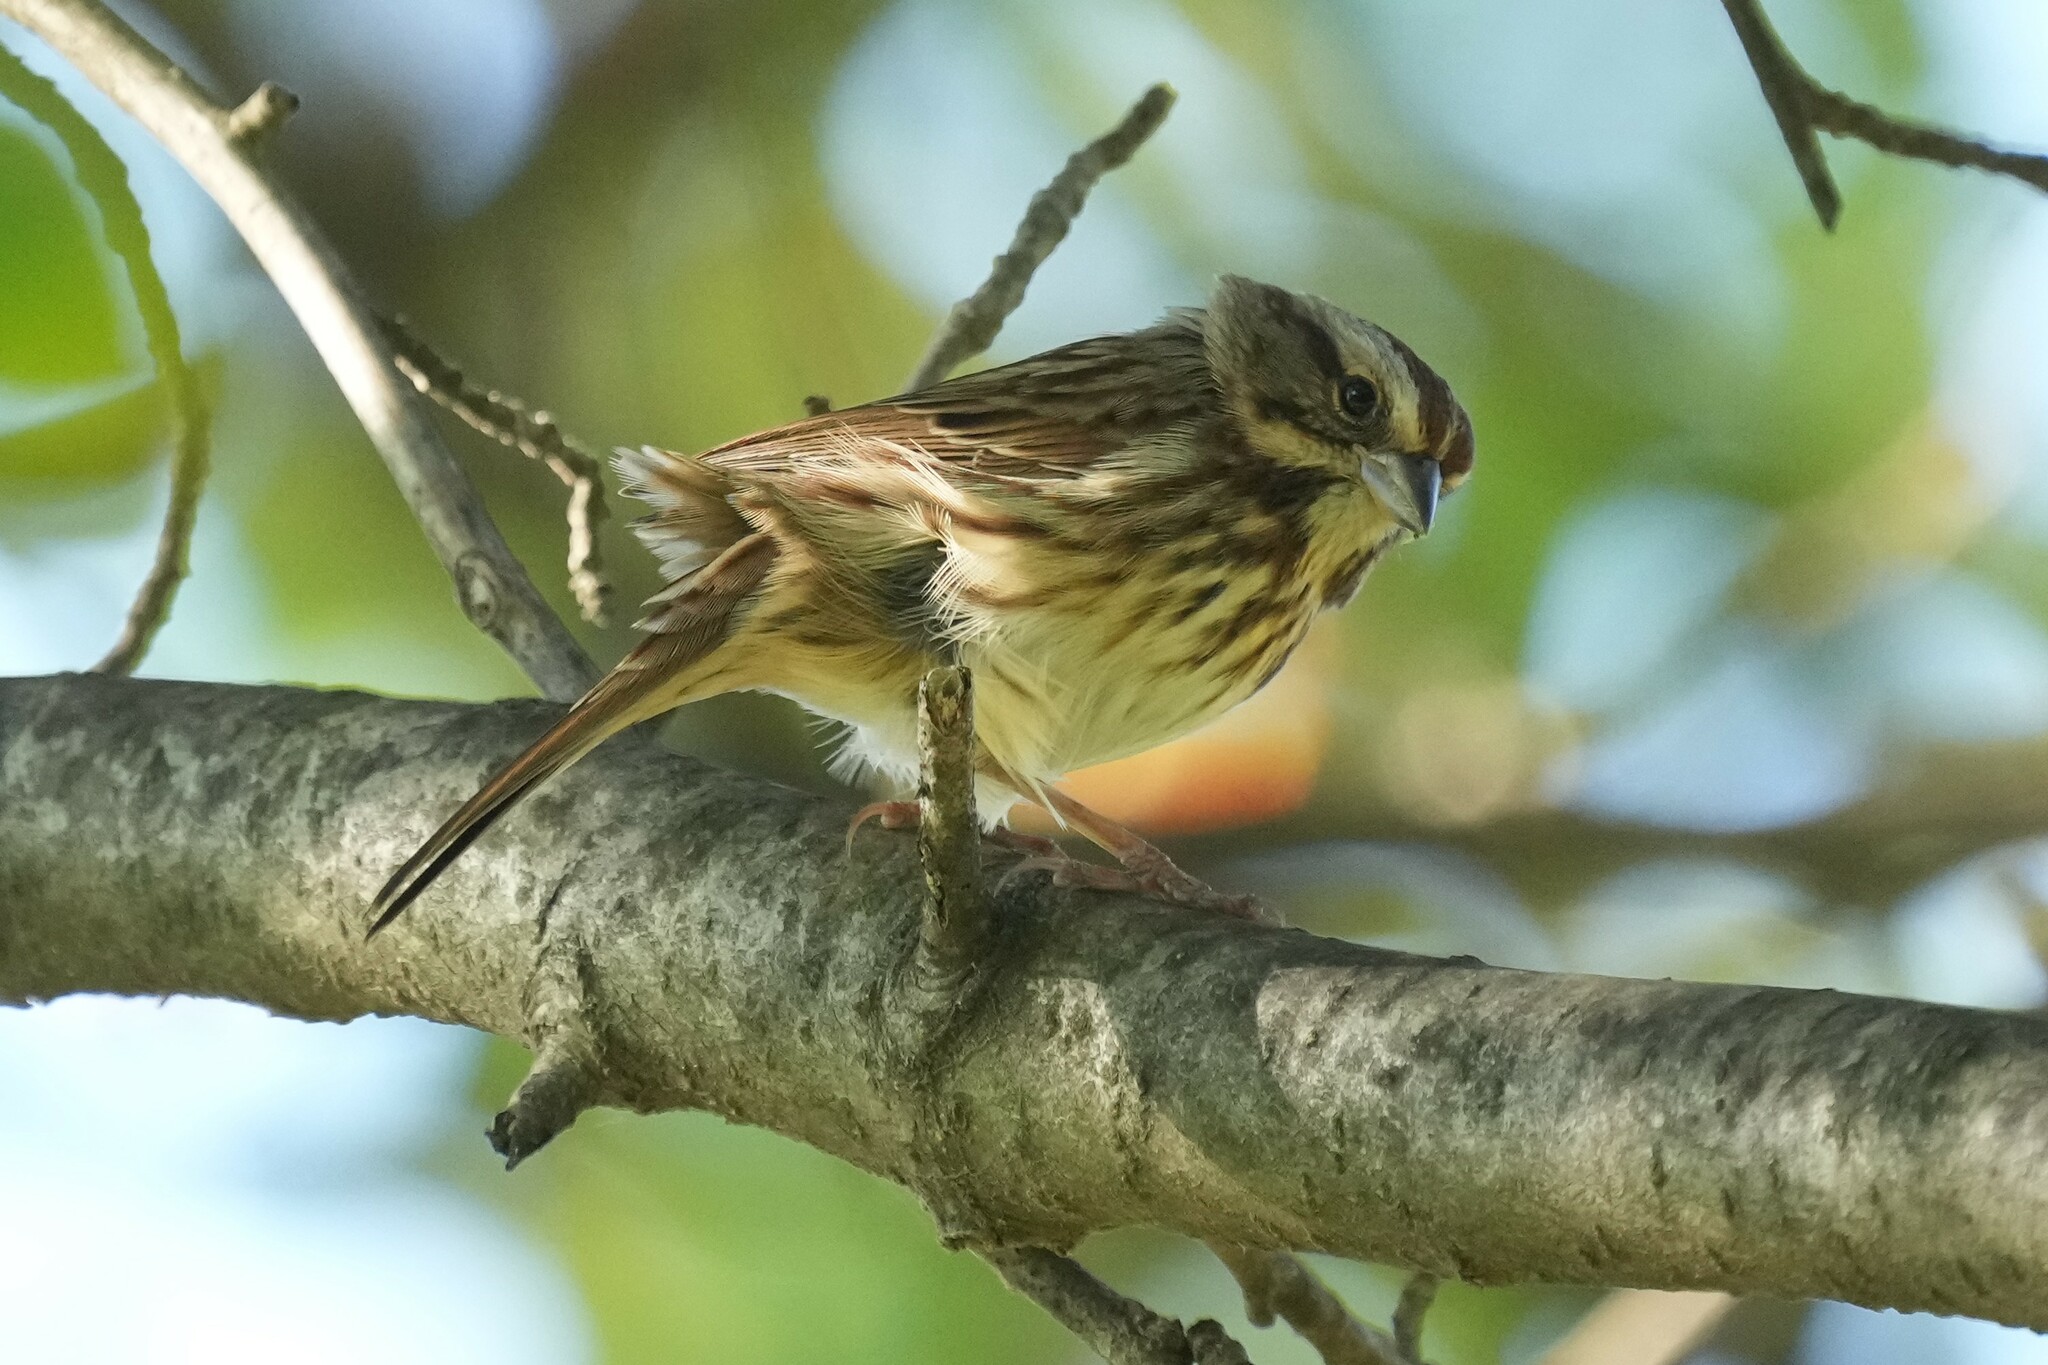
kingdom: Animalia
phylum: Chordata
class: Aves
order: Passeriformes
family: Passerellidae
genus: Melospiza
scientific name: Melospiza melodia
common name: Song sparrow
